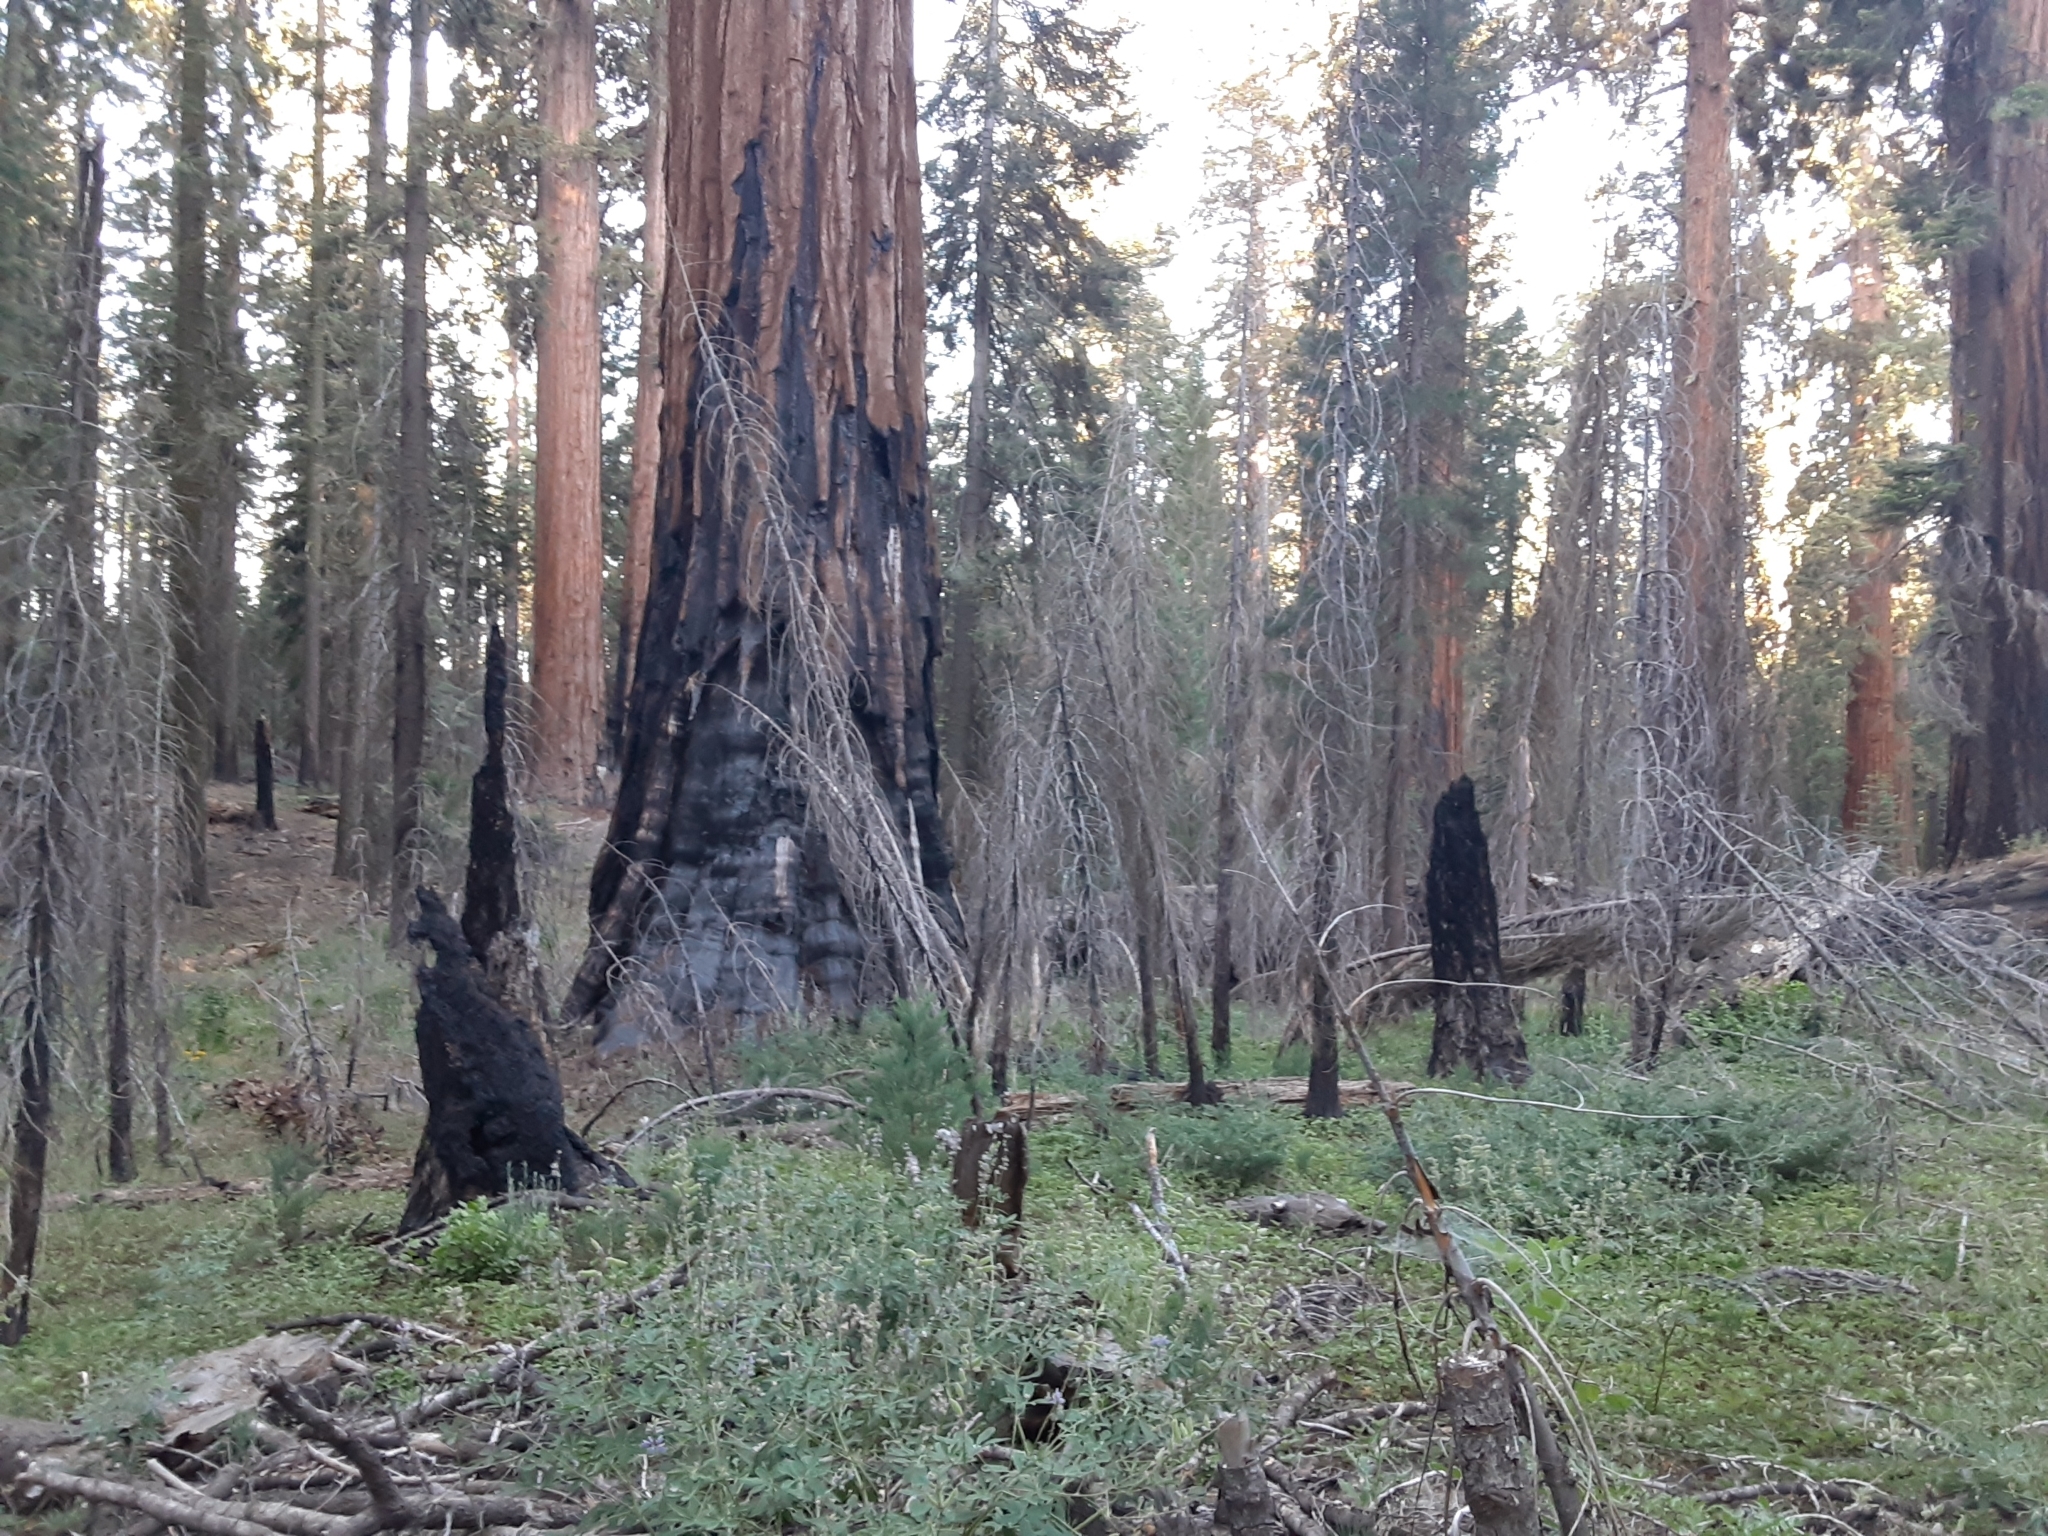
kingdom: Plantae
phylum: Tracheophyta
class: Pinopsida
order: Pinales
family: Cupressaceae
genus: Sequoiadendron
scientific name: Sequoiadendron giganteum
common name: Wellingtonia
